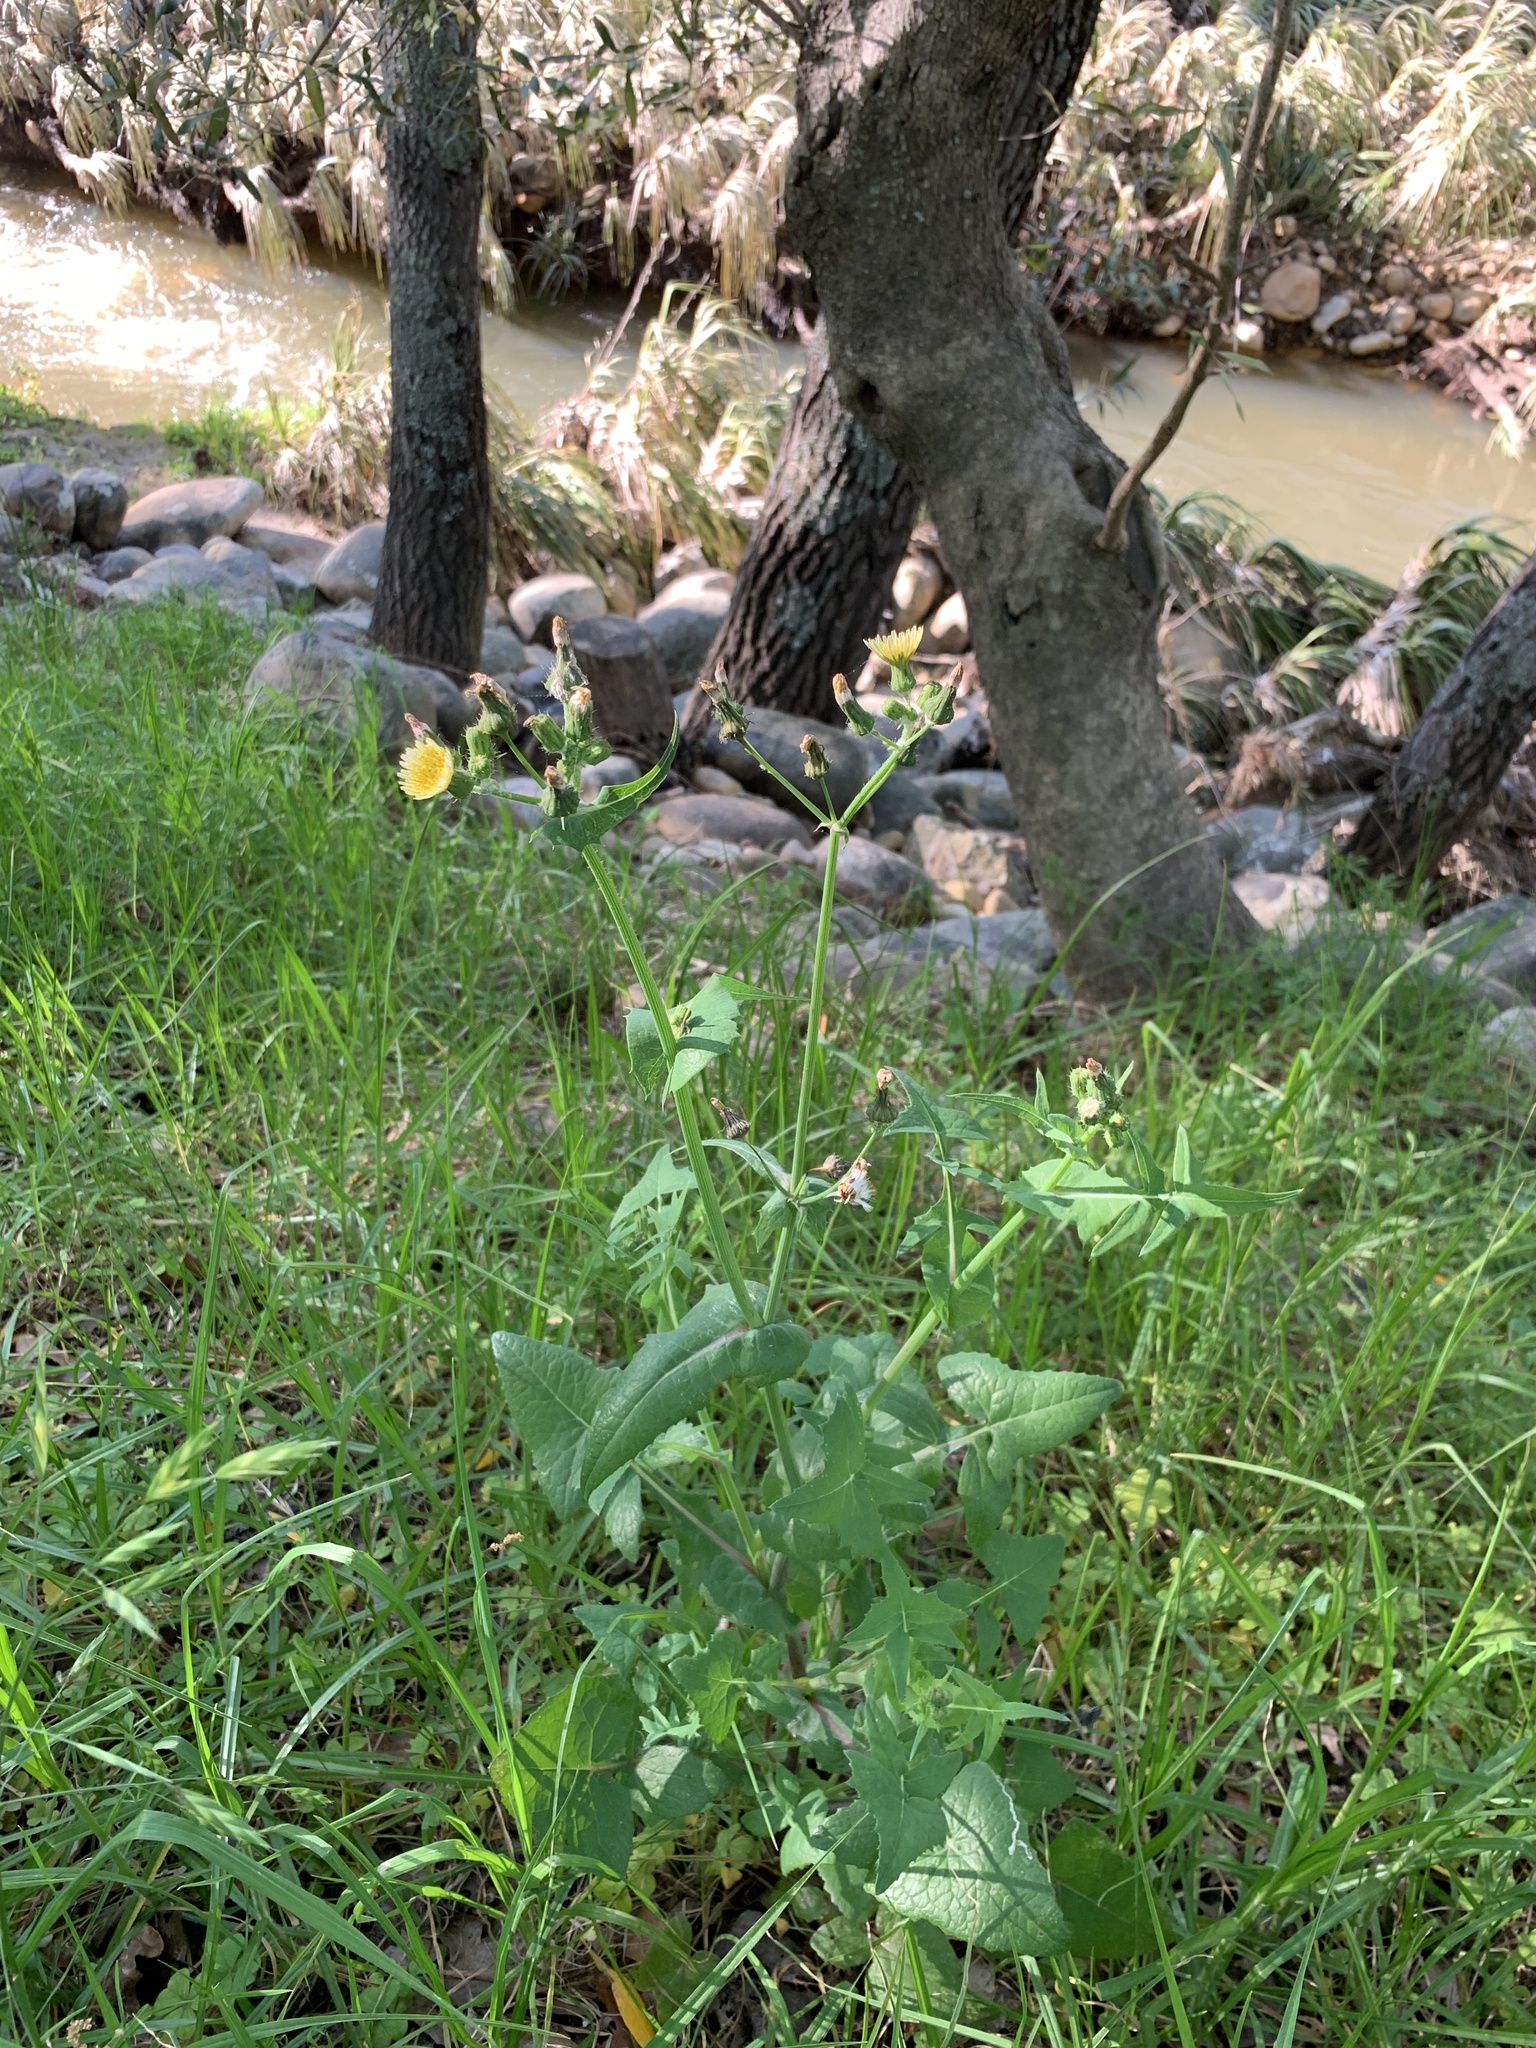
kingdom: Plantae
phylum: Tracheophyta
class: Magnoliopsida
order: Asterales
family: Asteraceae
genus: Sonchus
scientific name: Sonchus oleraceus
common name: Common sowthistle
